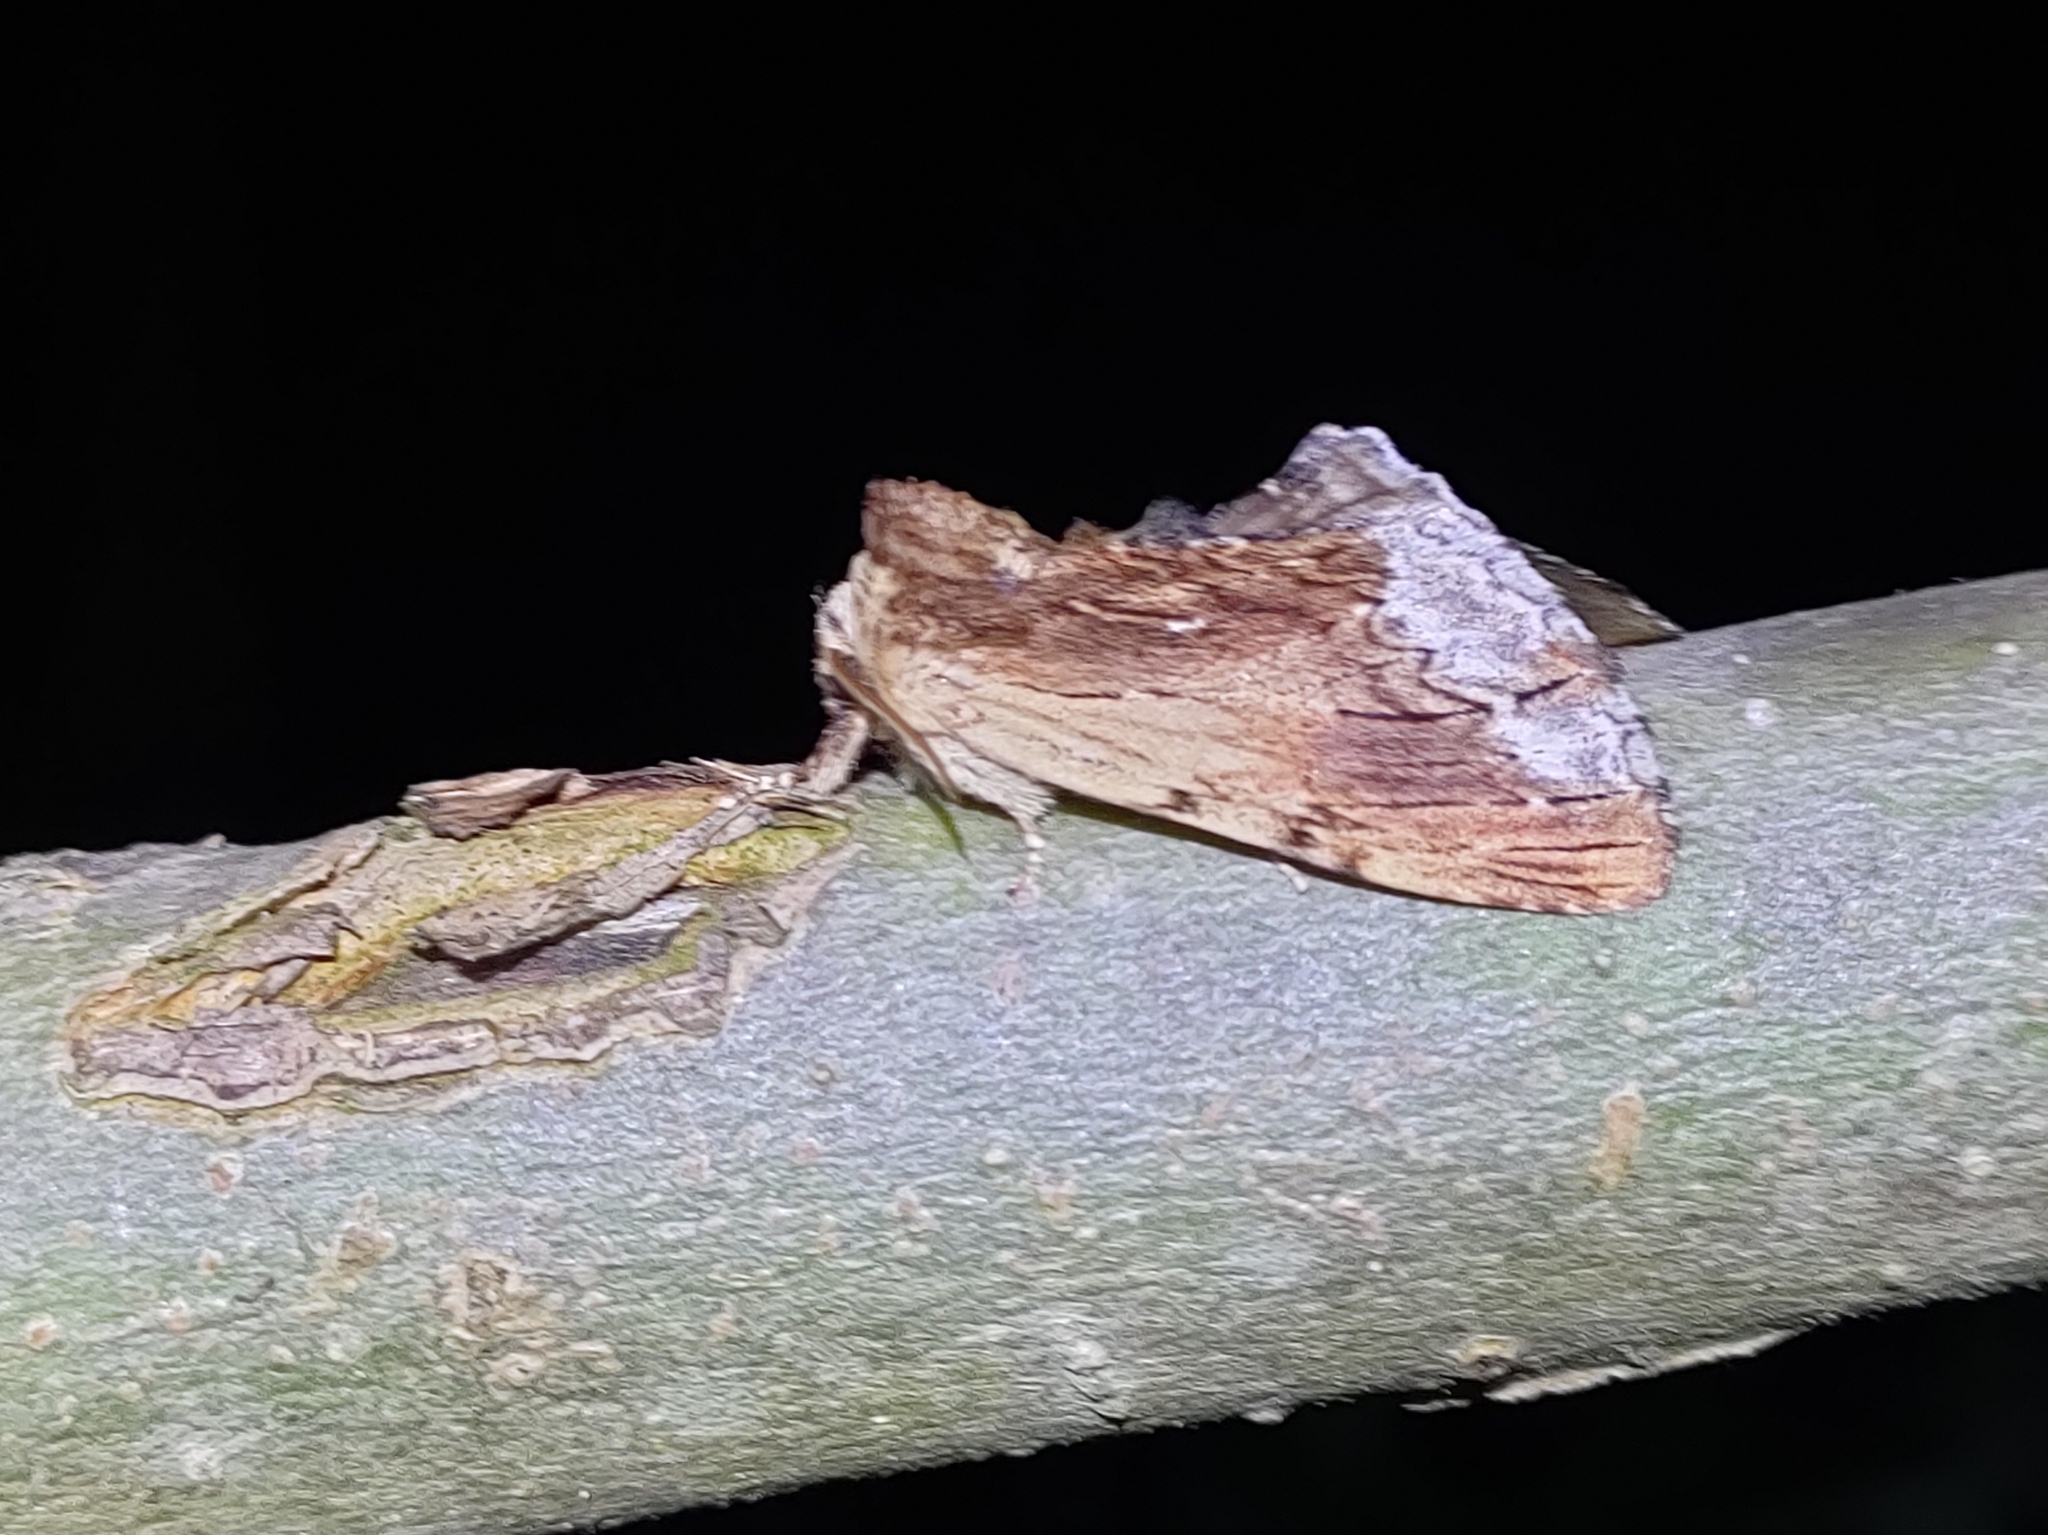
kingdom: Animalia
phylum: Arthropoda
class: Insecta
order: Lepidoptera
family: Notodontidae
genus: Ptilodon
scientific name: Ptilodon cucullina
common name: Maple prominent
